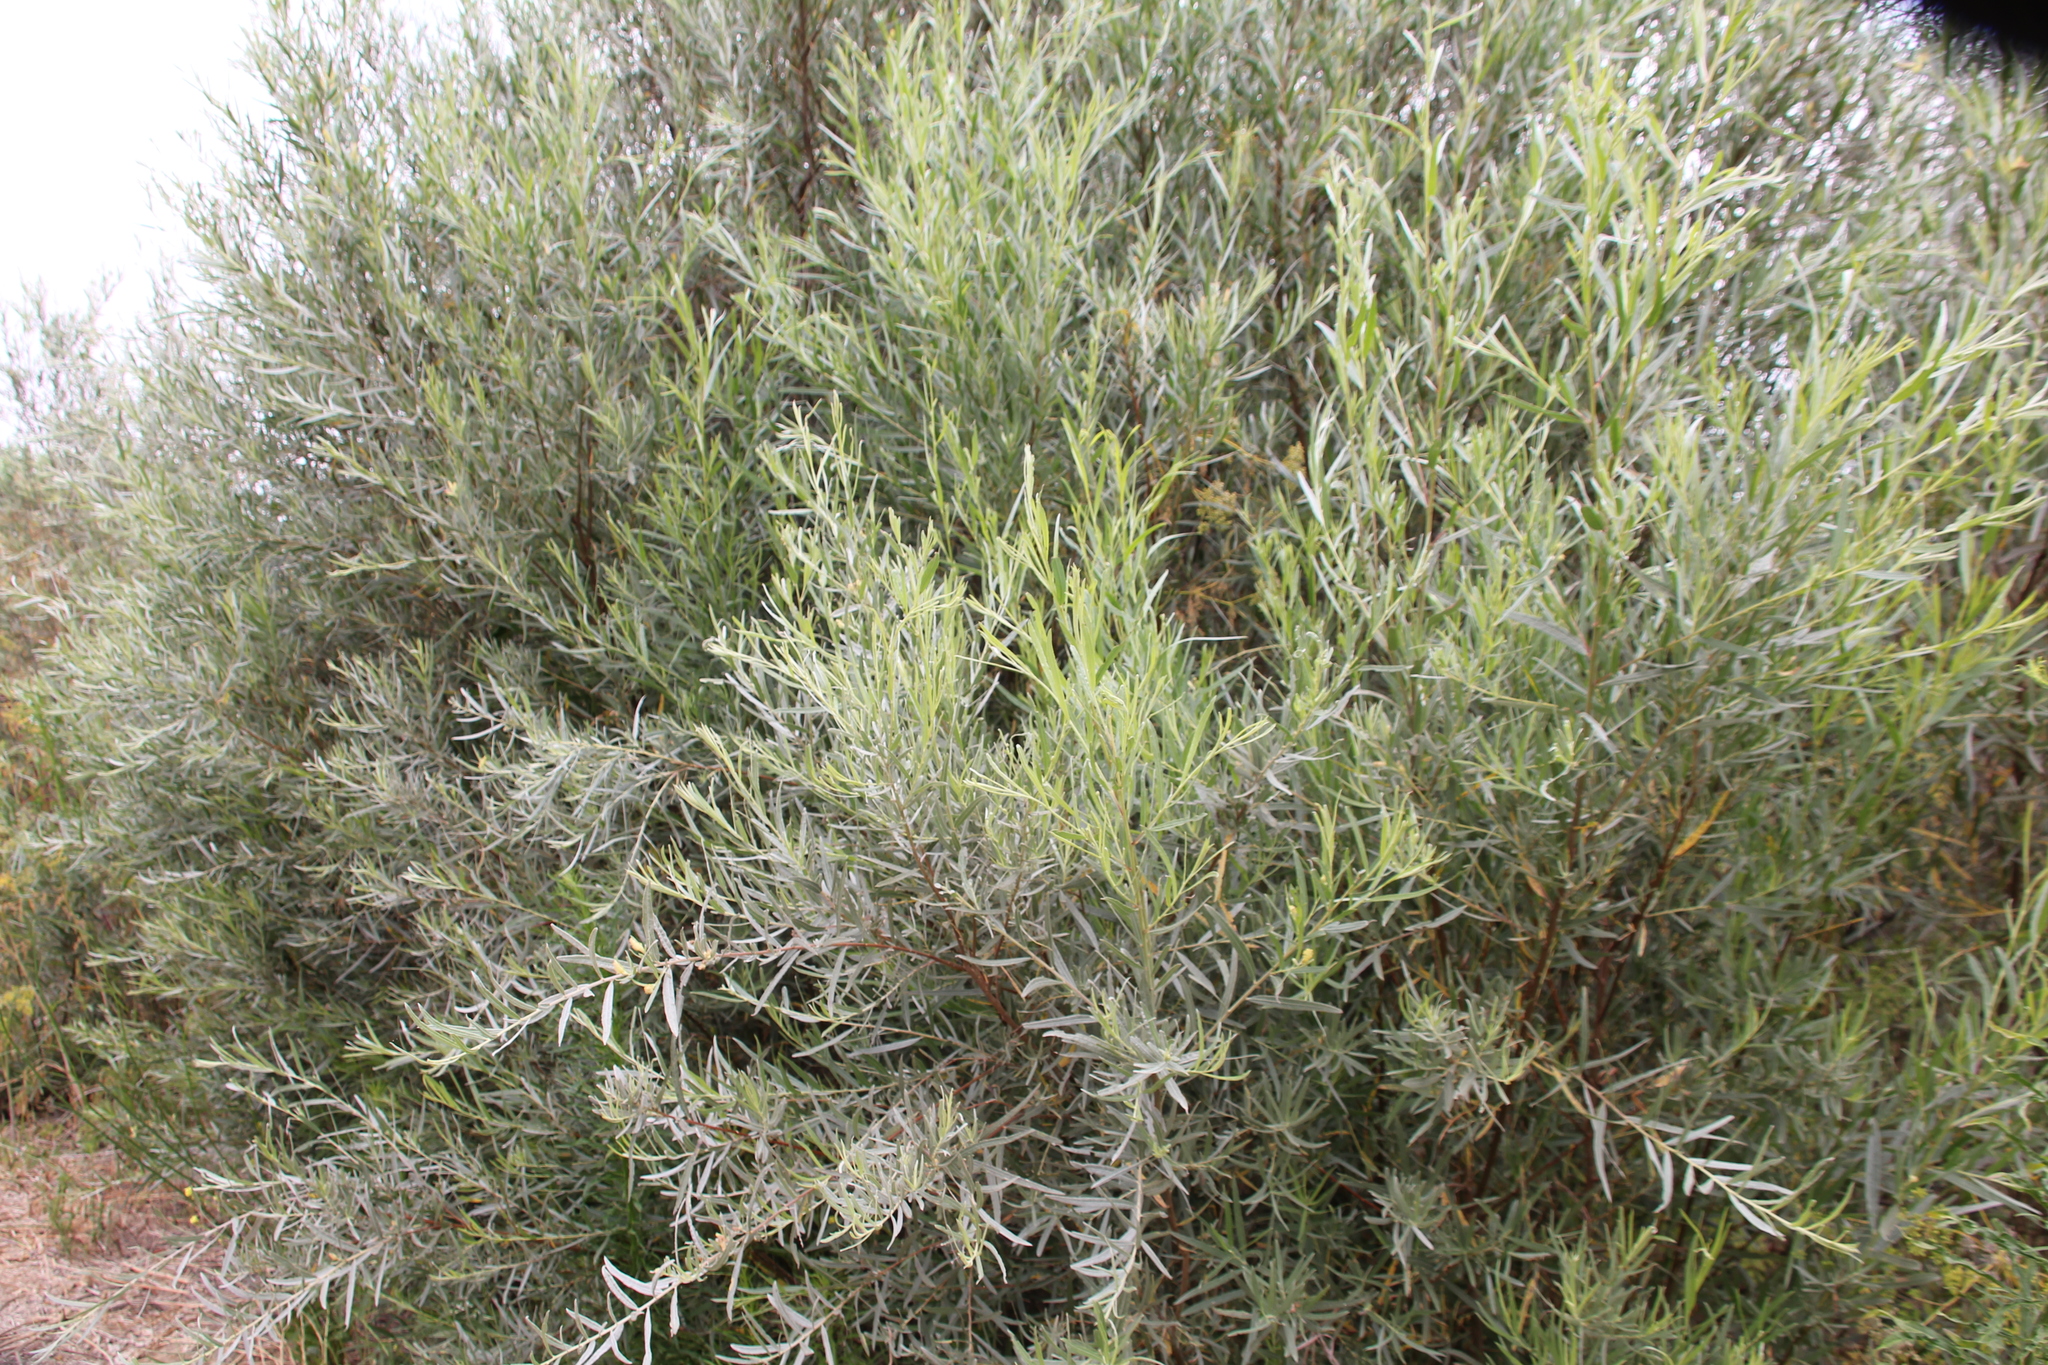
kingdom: Plantae
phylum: Tracheophyta
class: Magnoliopsida
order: Malpighiales
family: Salicaceae
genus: Salix
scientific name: Salix exigua
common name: Coyote willow
